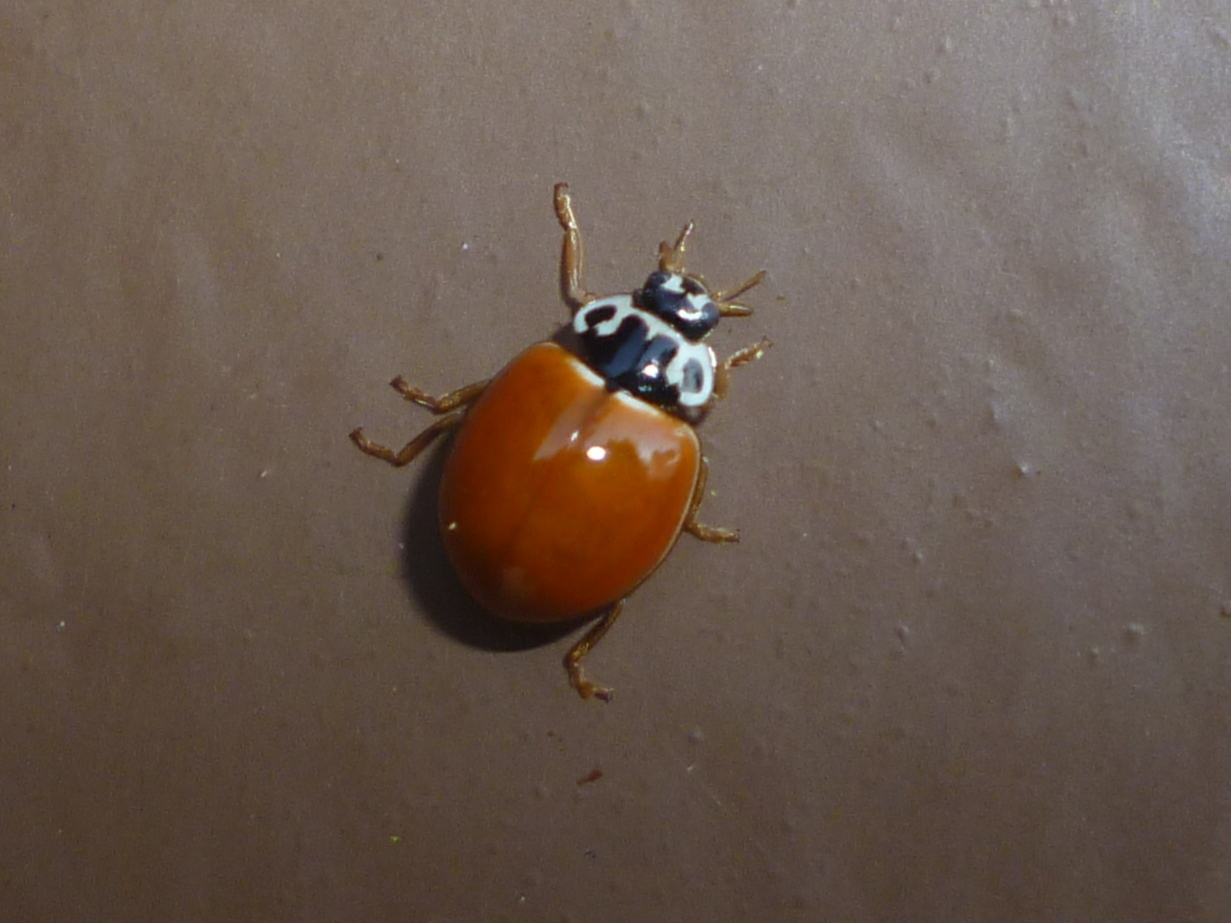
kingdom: Animalia
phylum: Arthropoda
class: Insecta
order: Coleoptera
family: Coccinellidae
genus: Cycloneda
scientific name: Cycloneda munda
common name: Polished lady beetle
